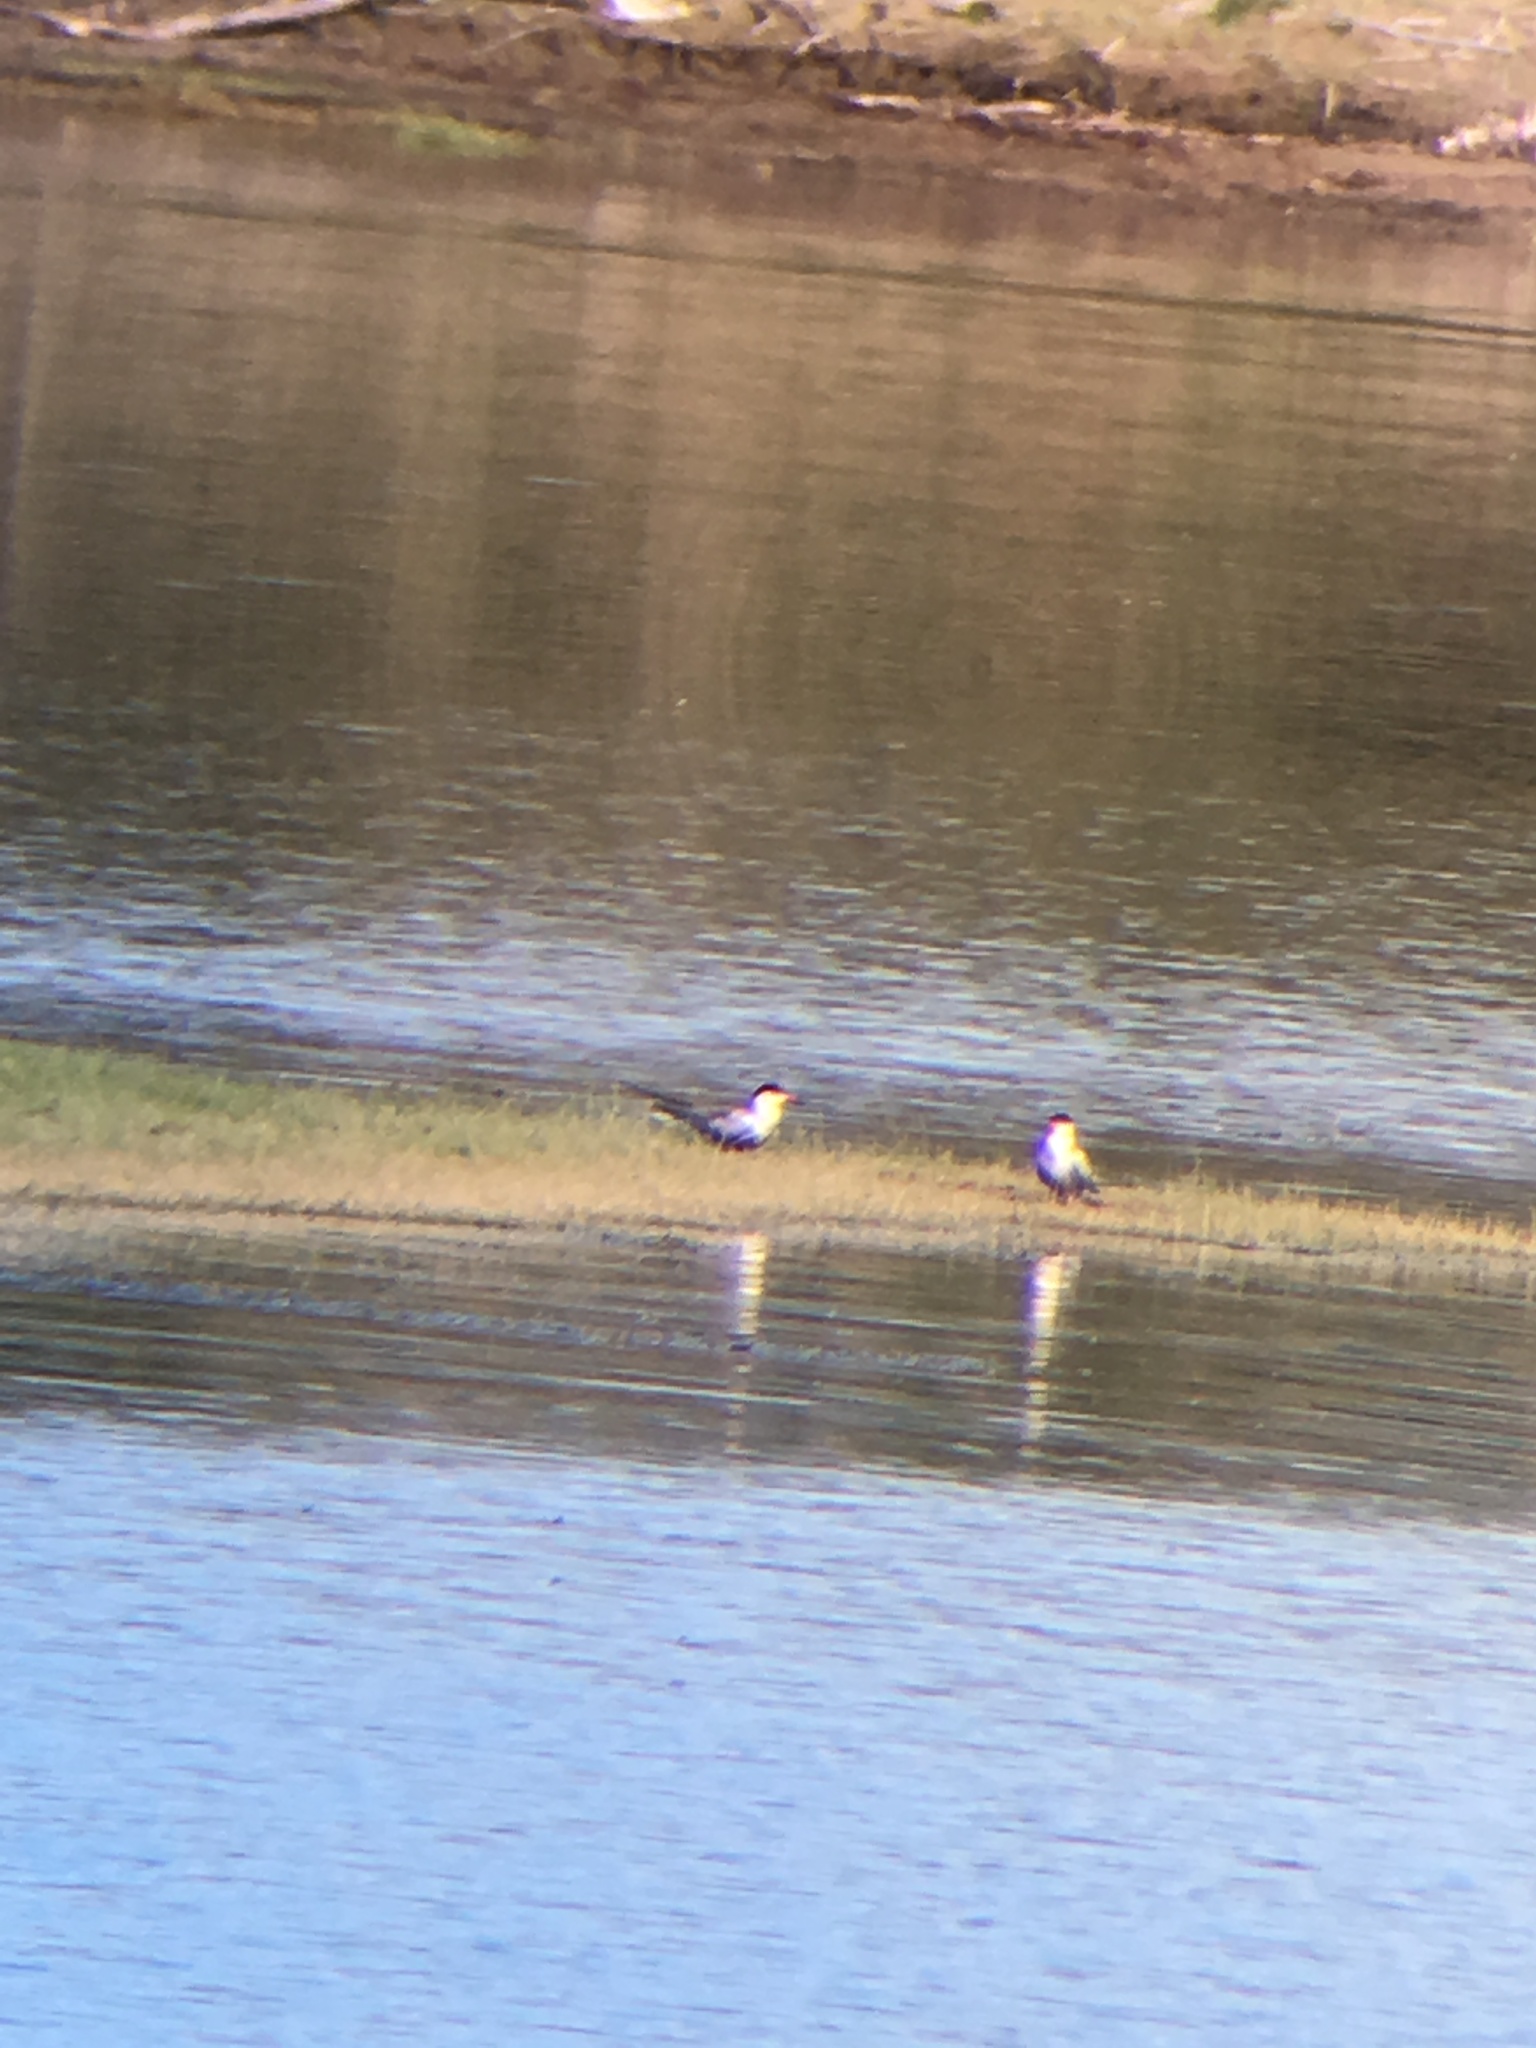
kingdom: Animalia
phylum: Chordata
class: Aves
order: Charadriiformes
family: Laridae
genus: Sterna
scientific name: Sterna hirundo
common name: Common tern
